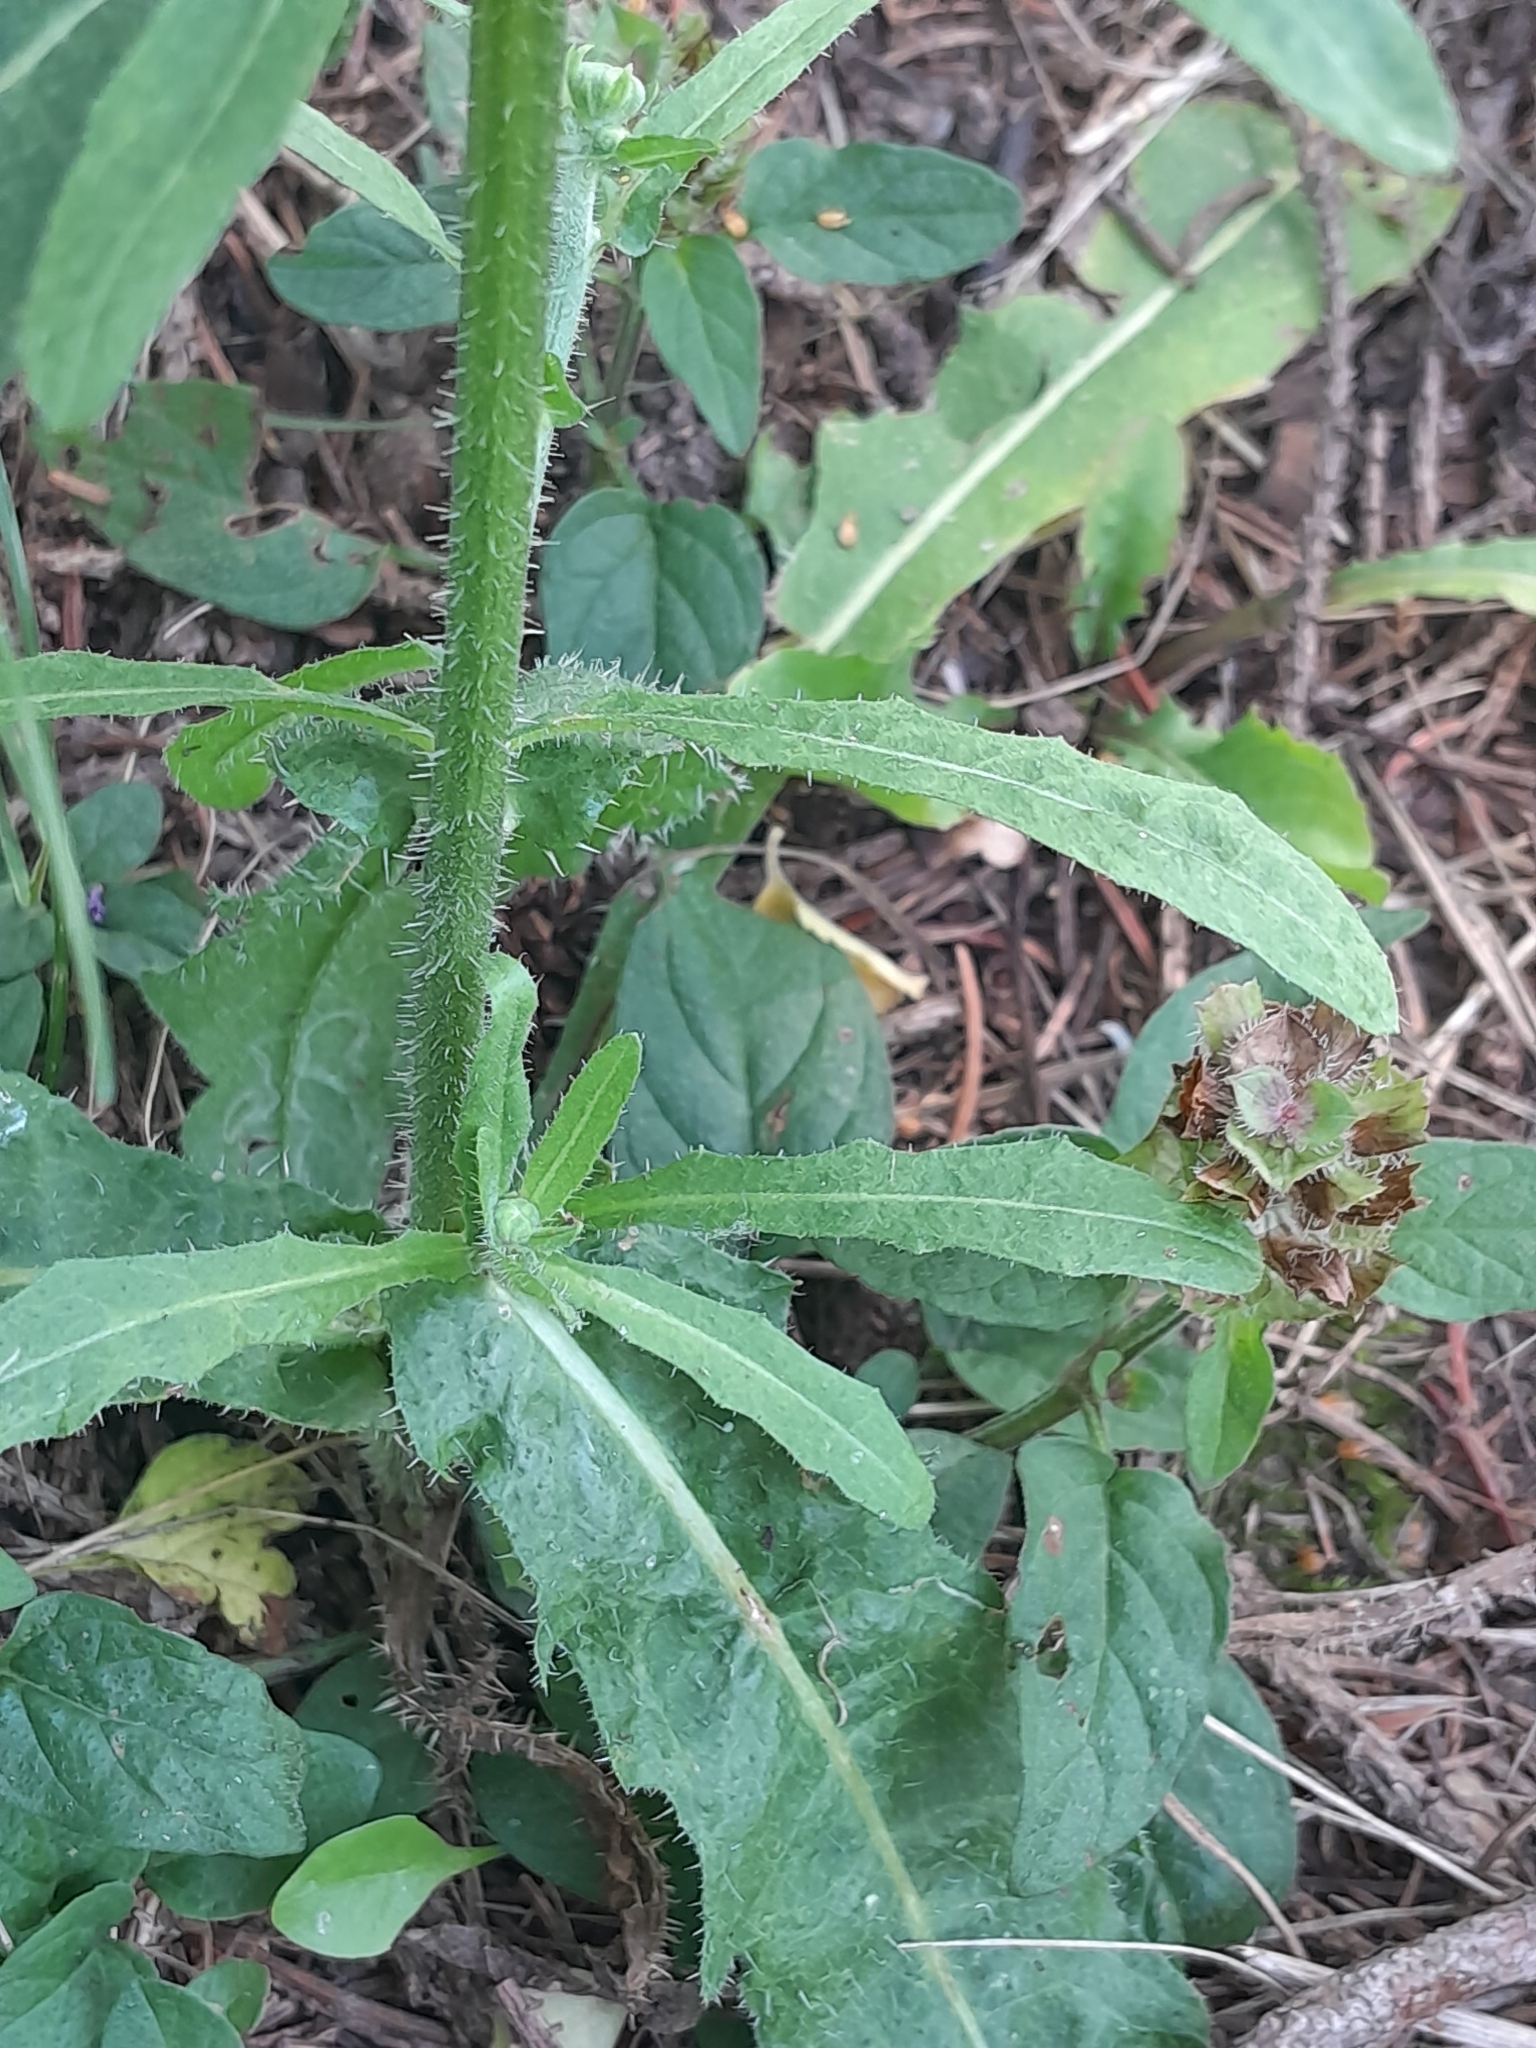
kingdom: Plantae
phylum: Tracheophyta
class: Magnoliopsida
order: Asterales
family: Asteraceae
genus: Picris
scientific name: Picris hieracioides
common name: Hawkweed oxtongue
